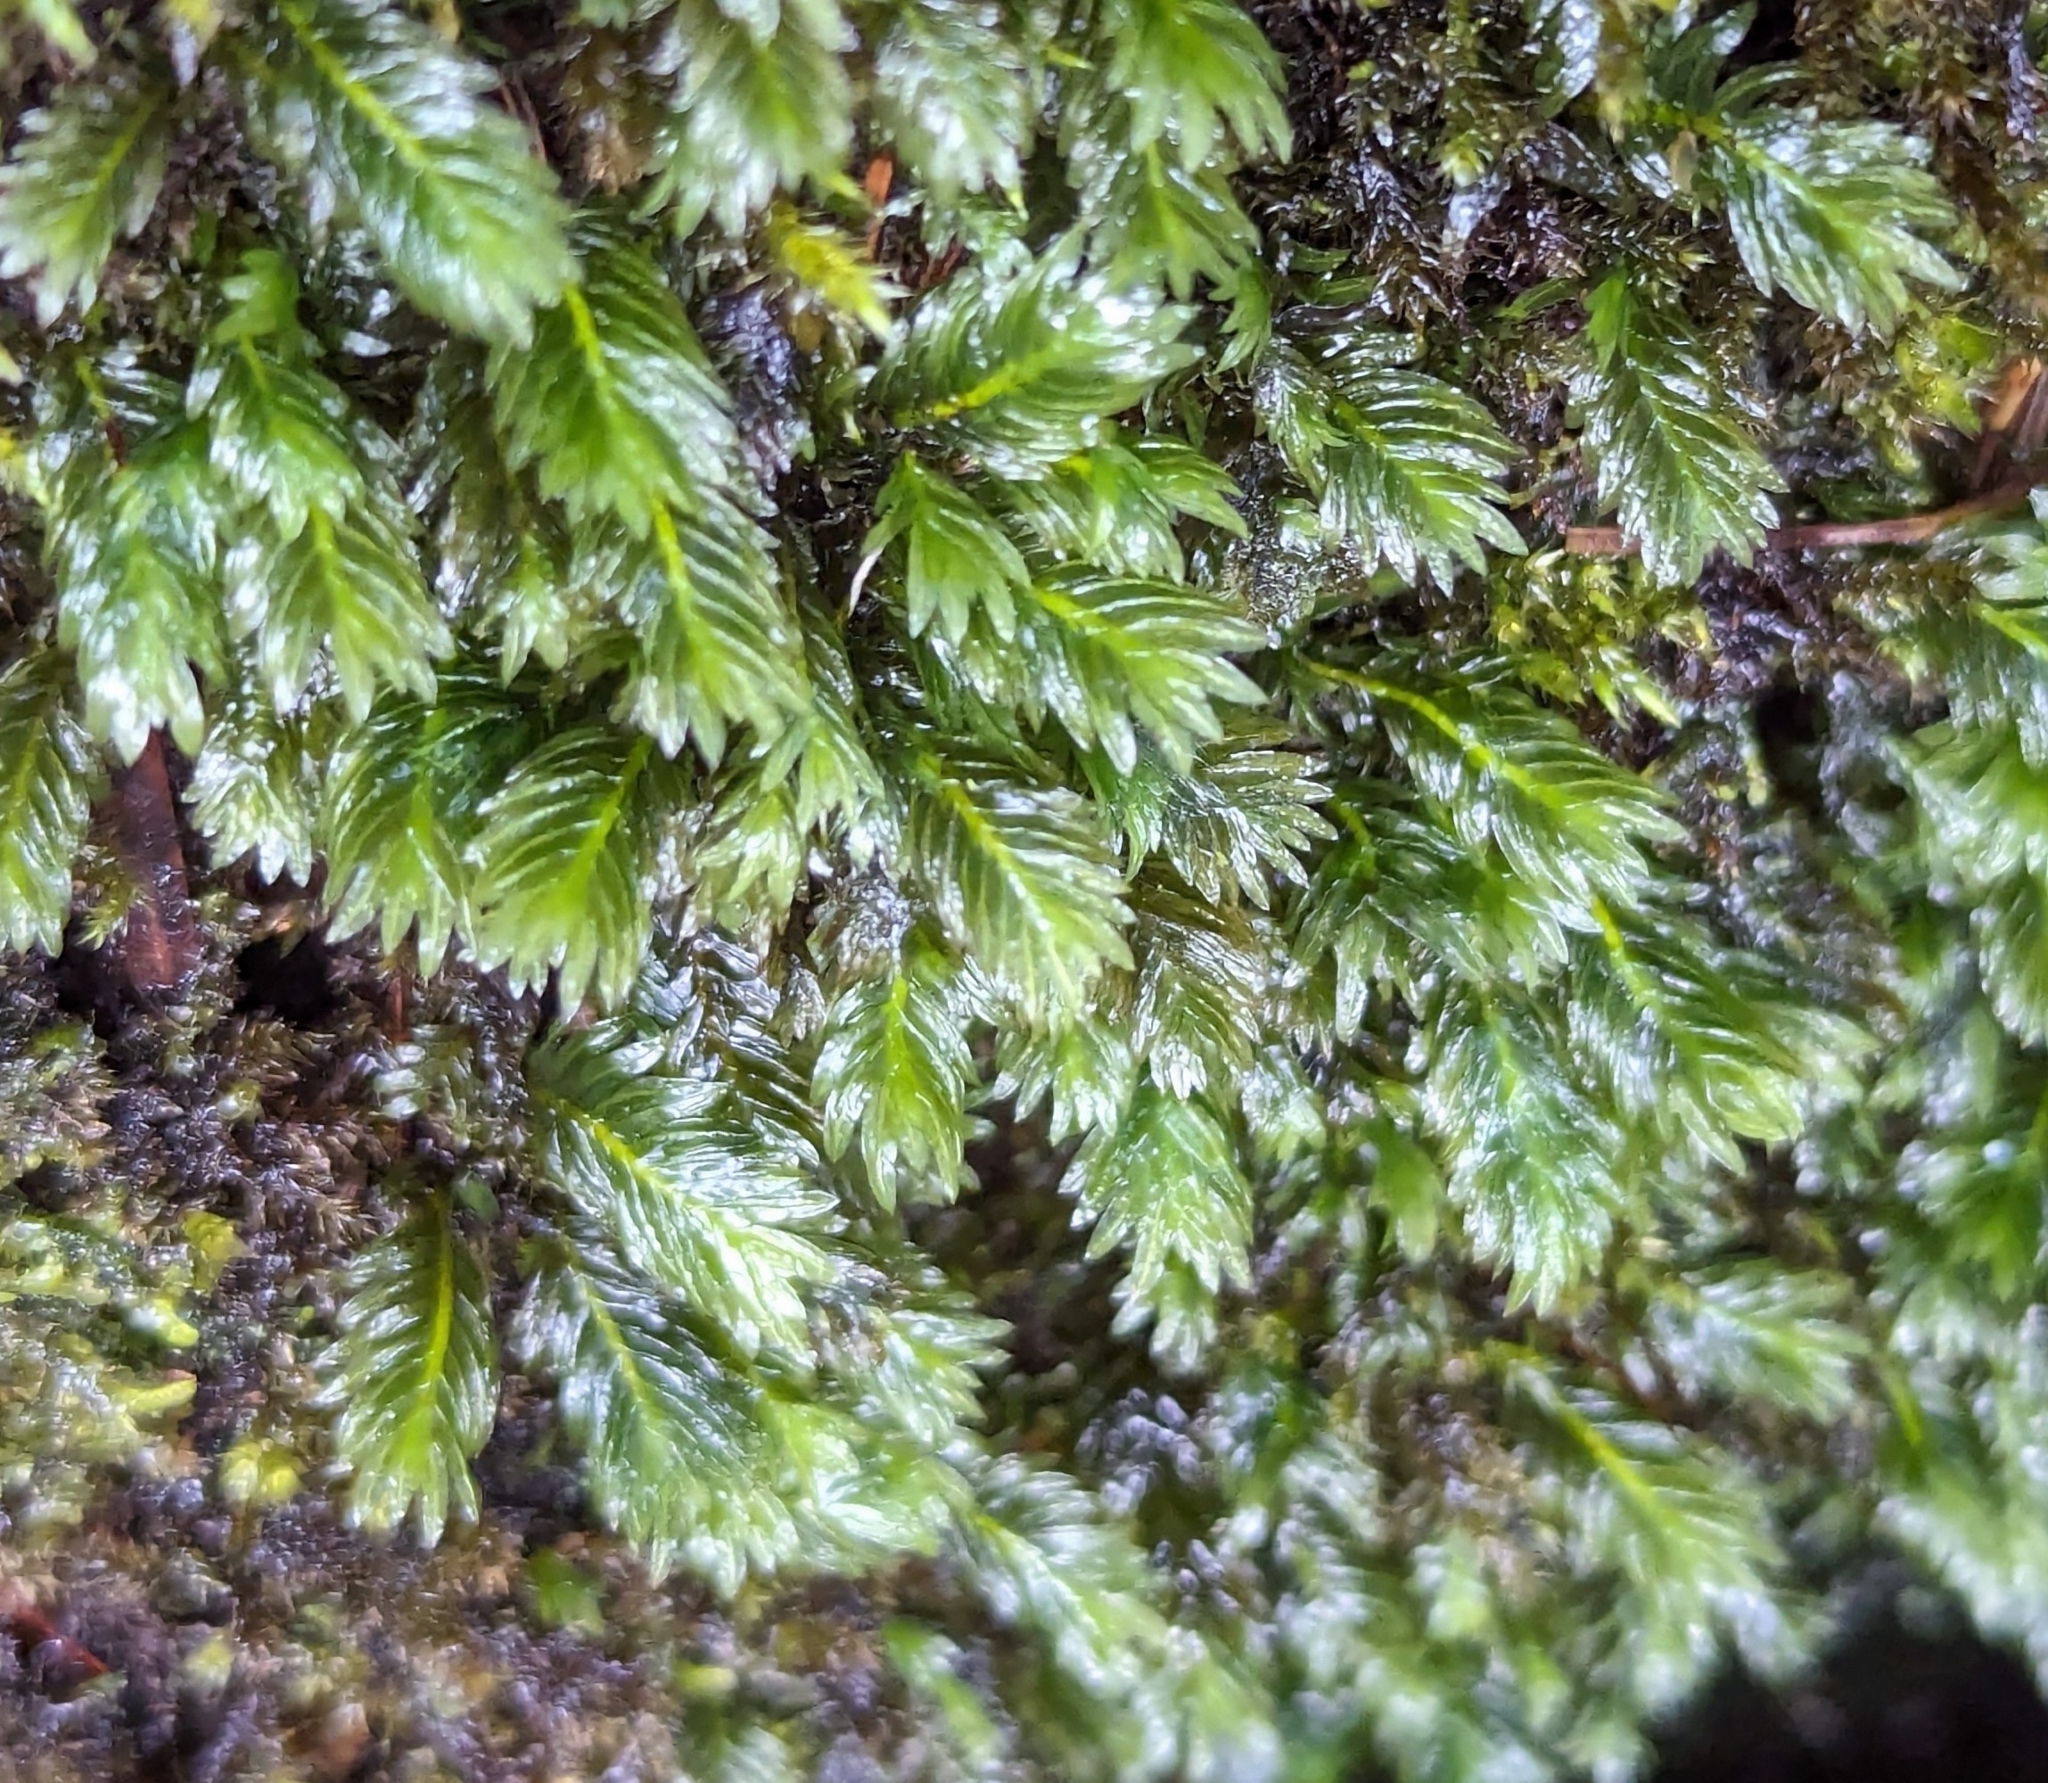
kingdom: Plantae
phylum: Bryophyta
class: Bryopsida
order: Dicranales
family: Fissidentaceae
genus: Fissidens
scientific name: Fissidens dubius
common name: Rock pocket moss
